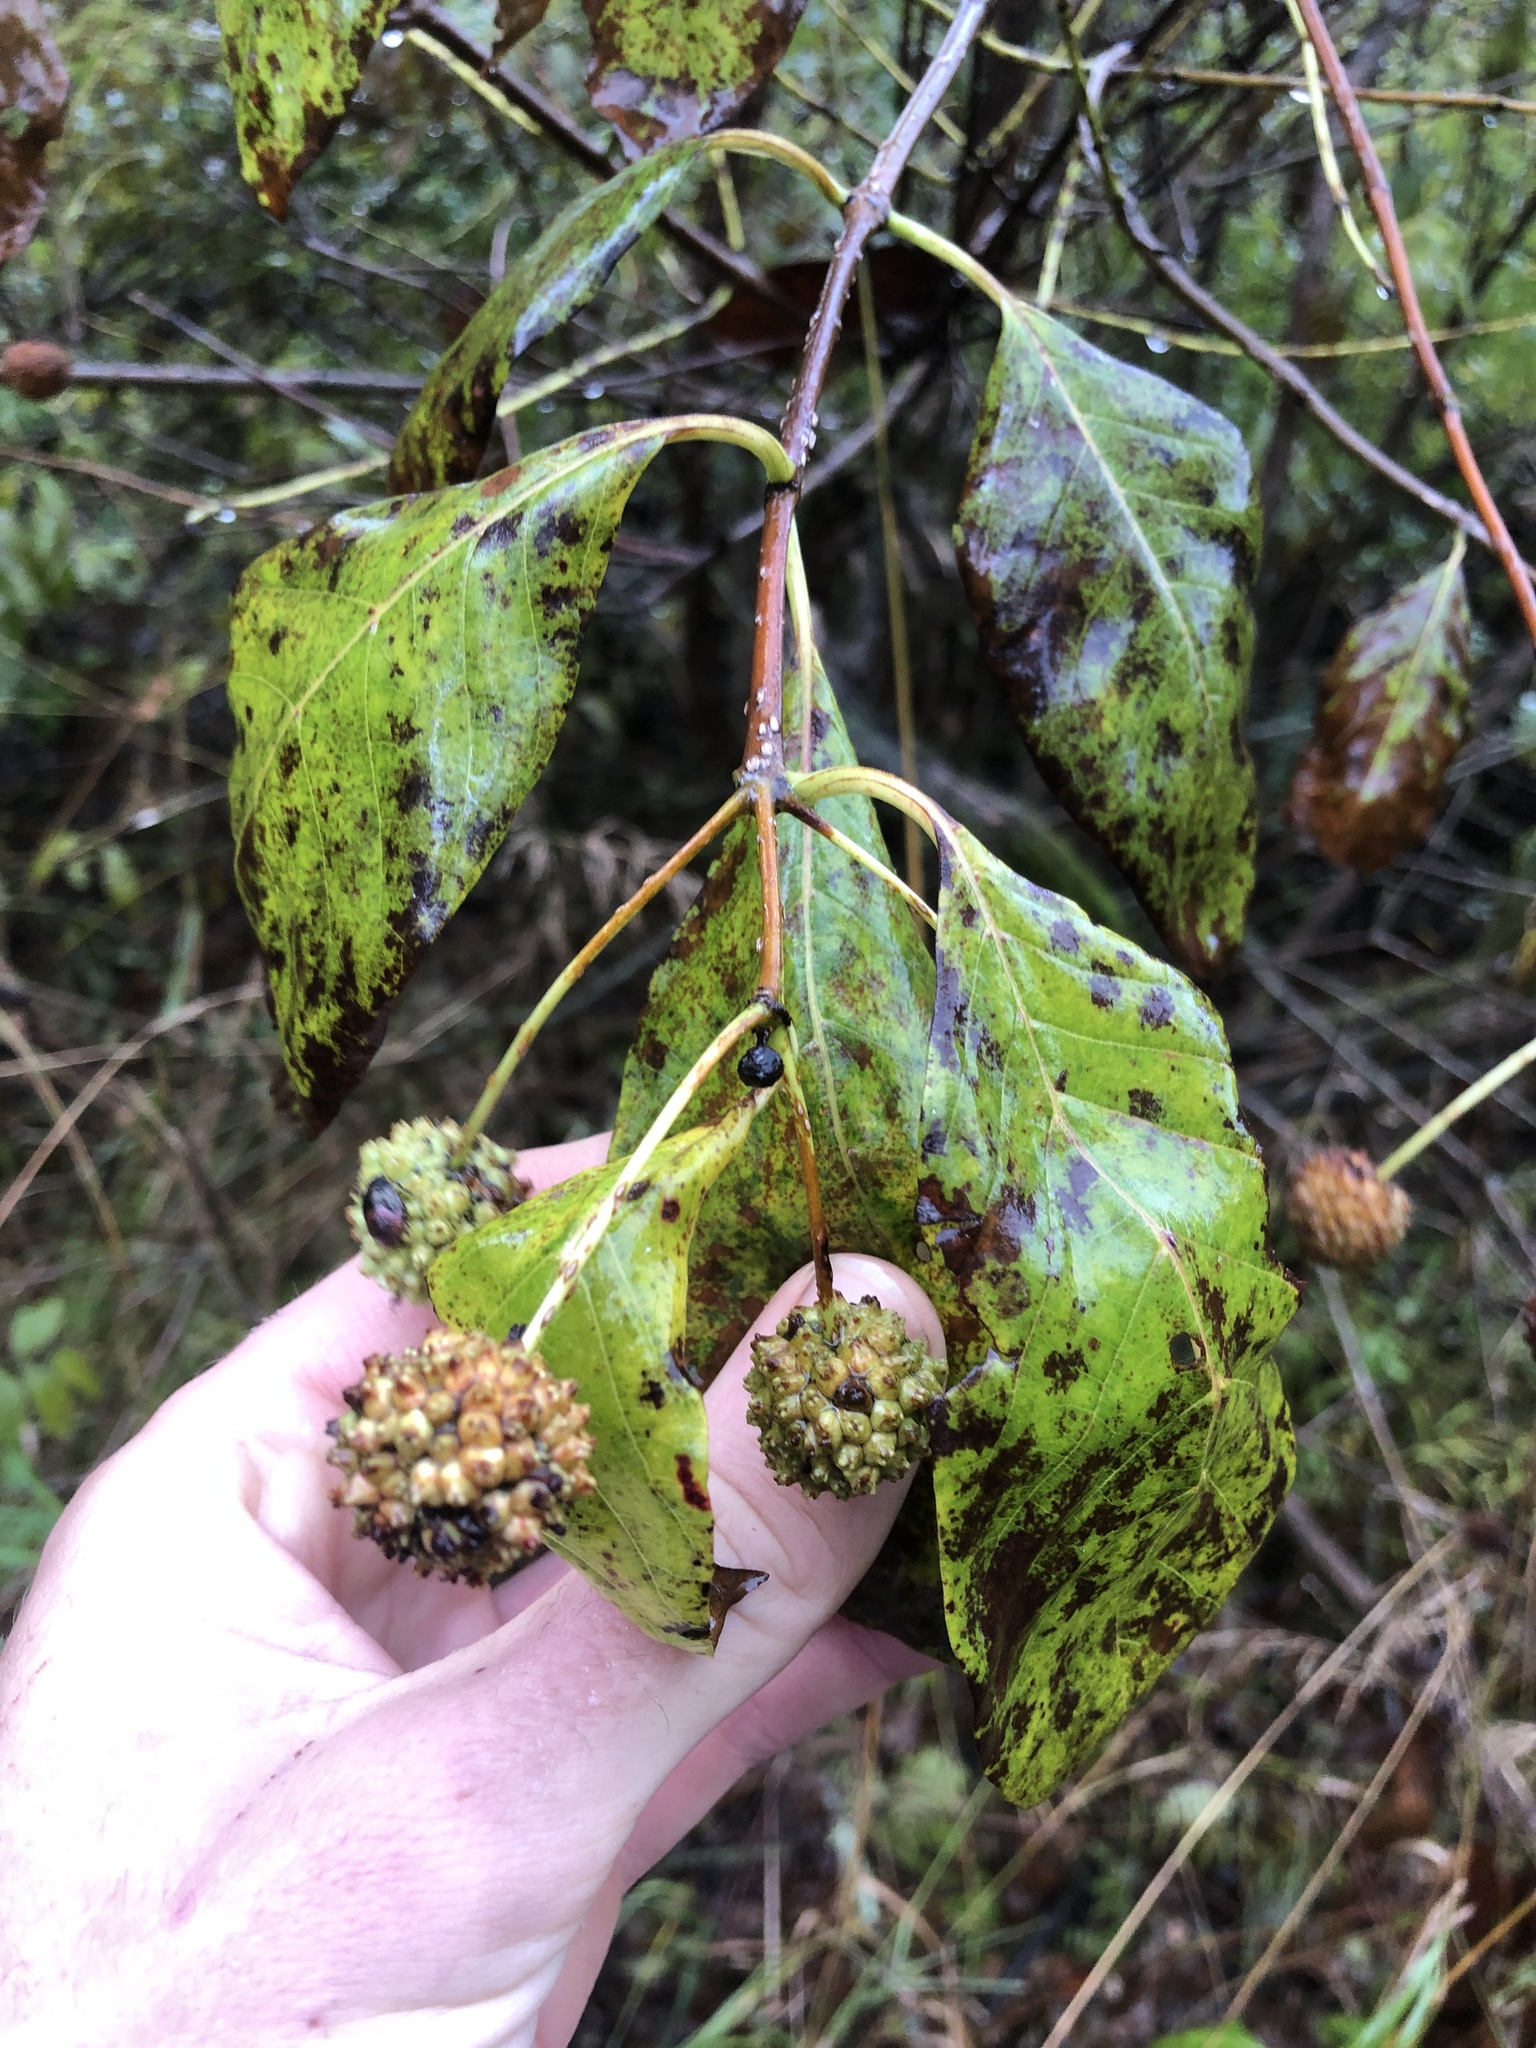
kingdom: Plantae
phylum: Tracheophyta
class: Magnoliopsida
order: Gentianales
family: Rubiaceae
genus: Cephalanthus
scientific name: Cephalanthus occidentalis
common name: Button-willow
